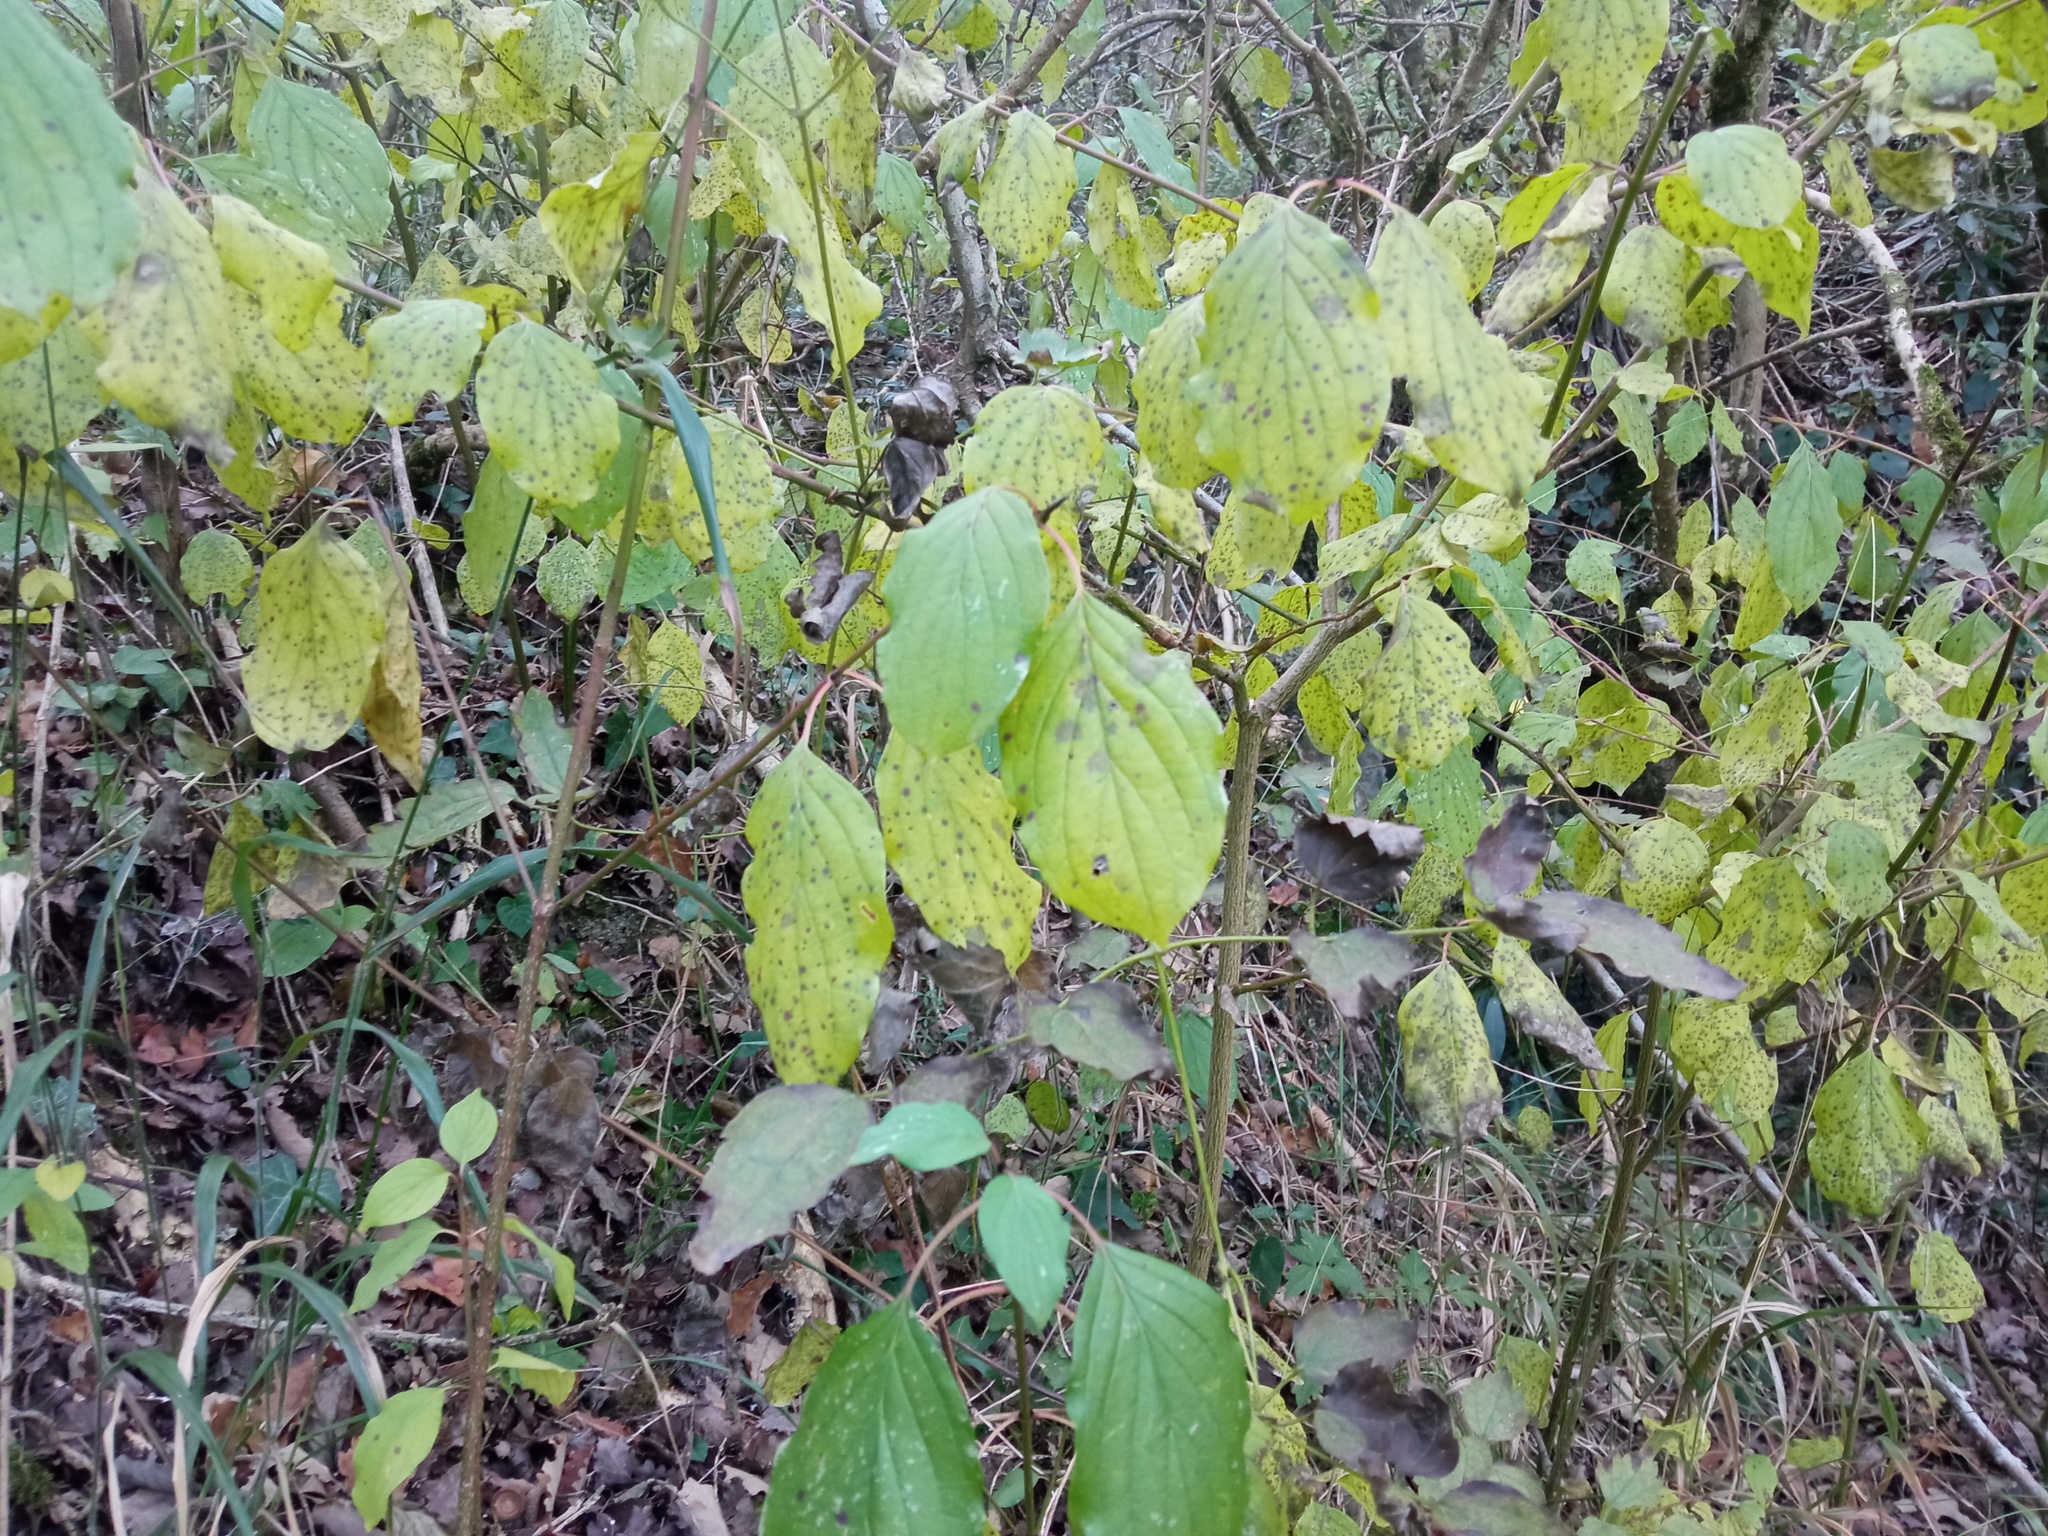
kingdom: Plantae
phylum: Tracheophyta
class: Magnoliopsida
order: Cornales
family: Cornaceae
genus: Cornus
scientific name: Cornus sanguinea
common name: Dogwood
